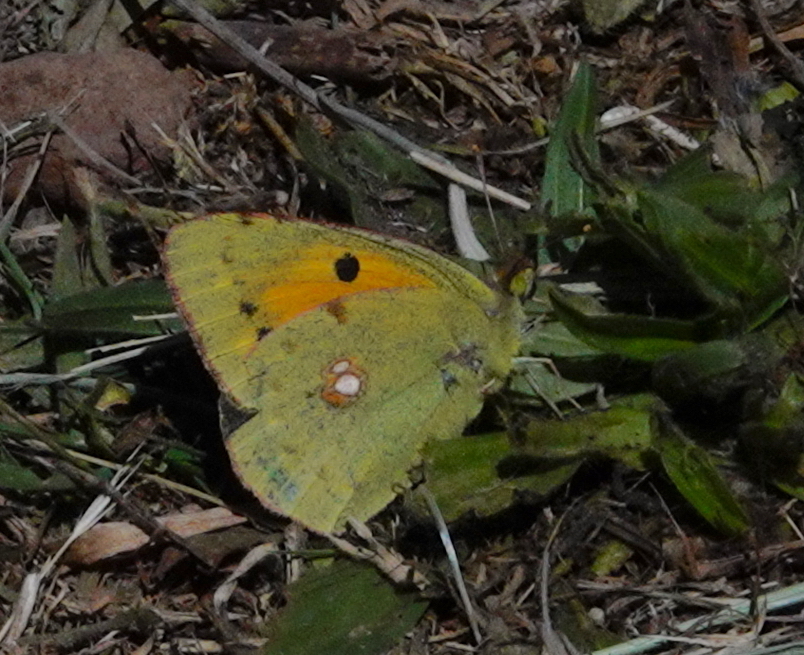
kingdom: Animalia
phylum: Arthropoda
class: Insecta
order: Lepidoptera
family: Pieridae
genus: Colias
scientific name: Colias croceus
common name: Clouded yellow
